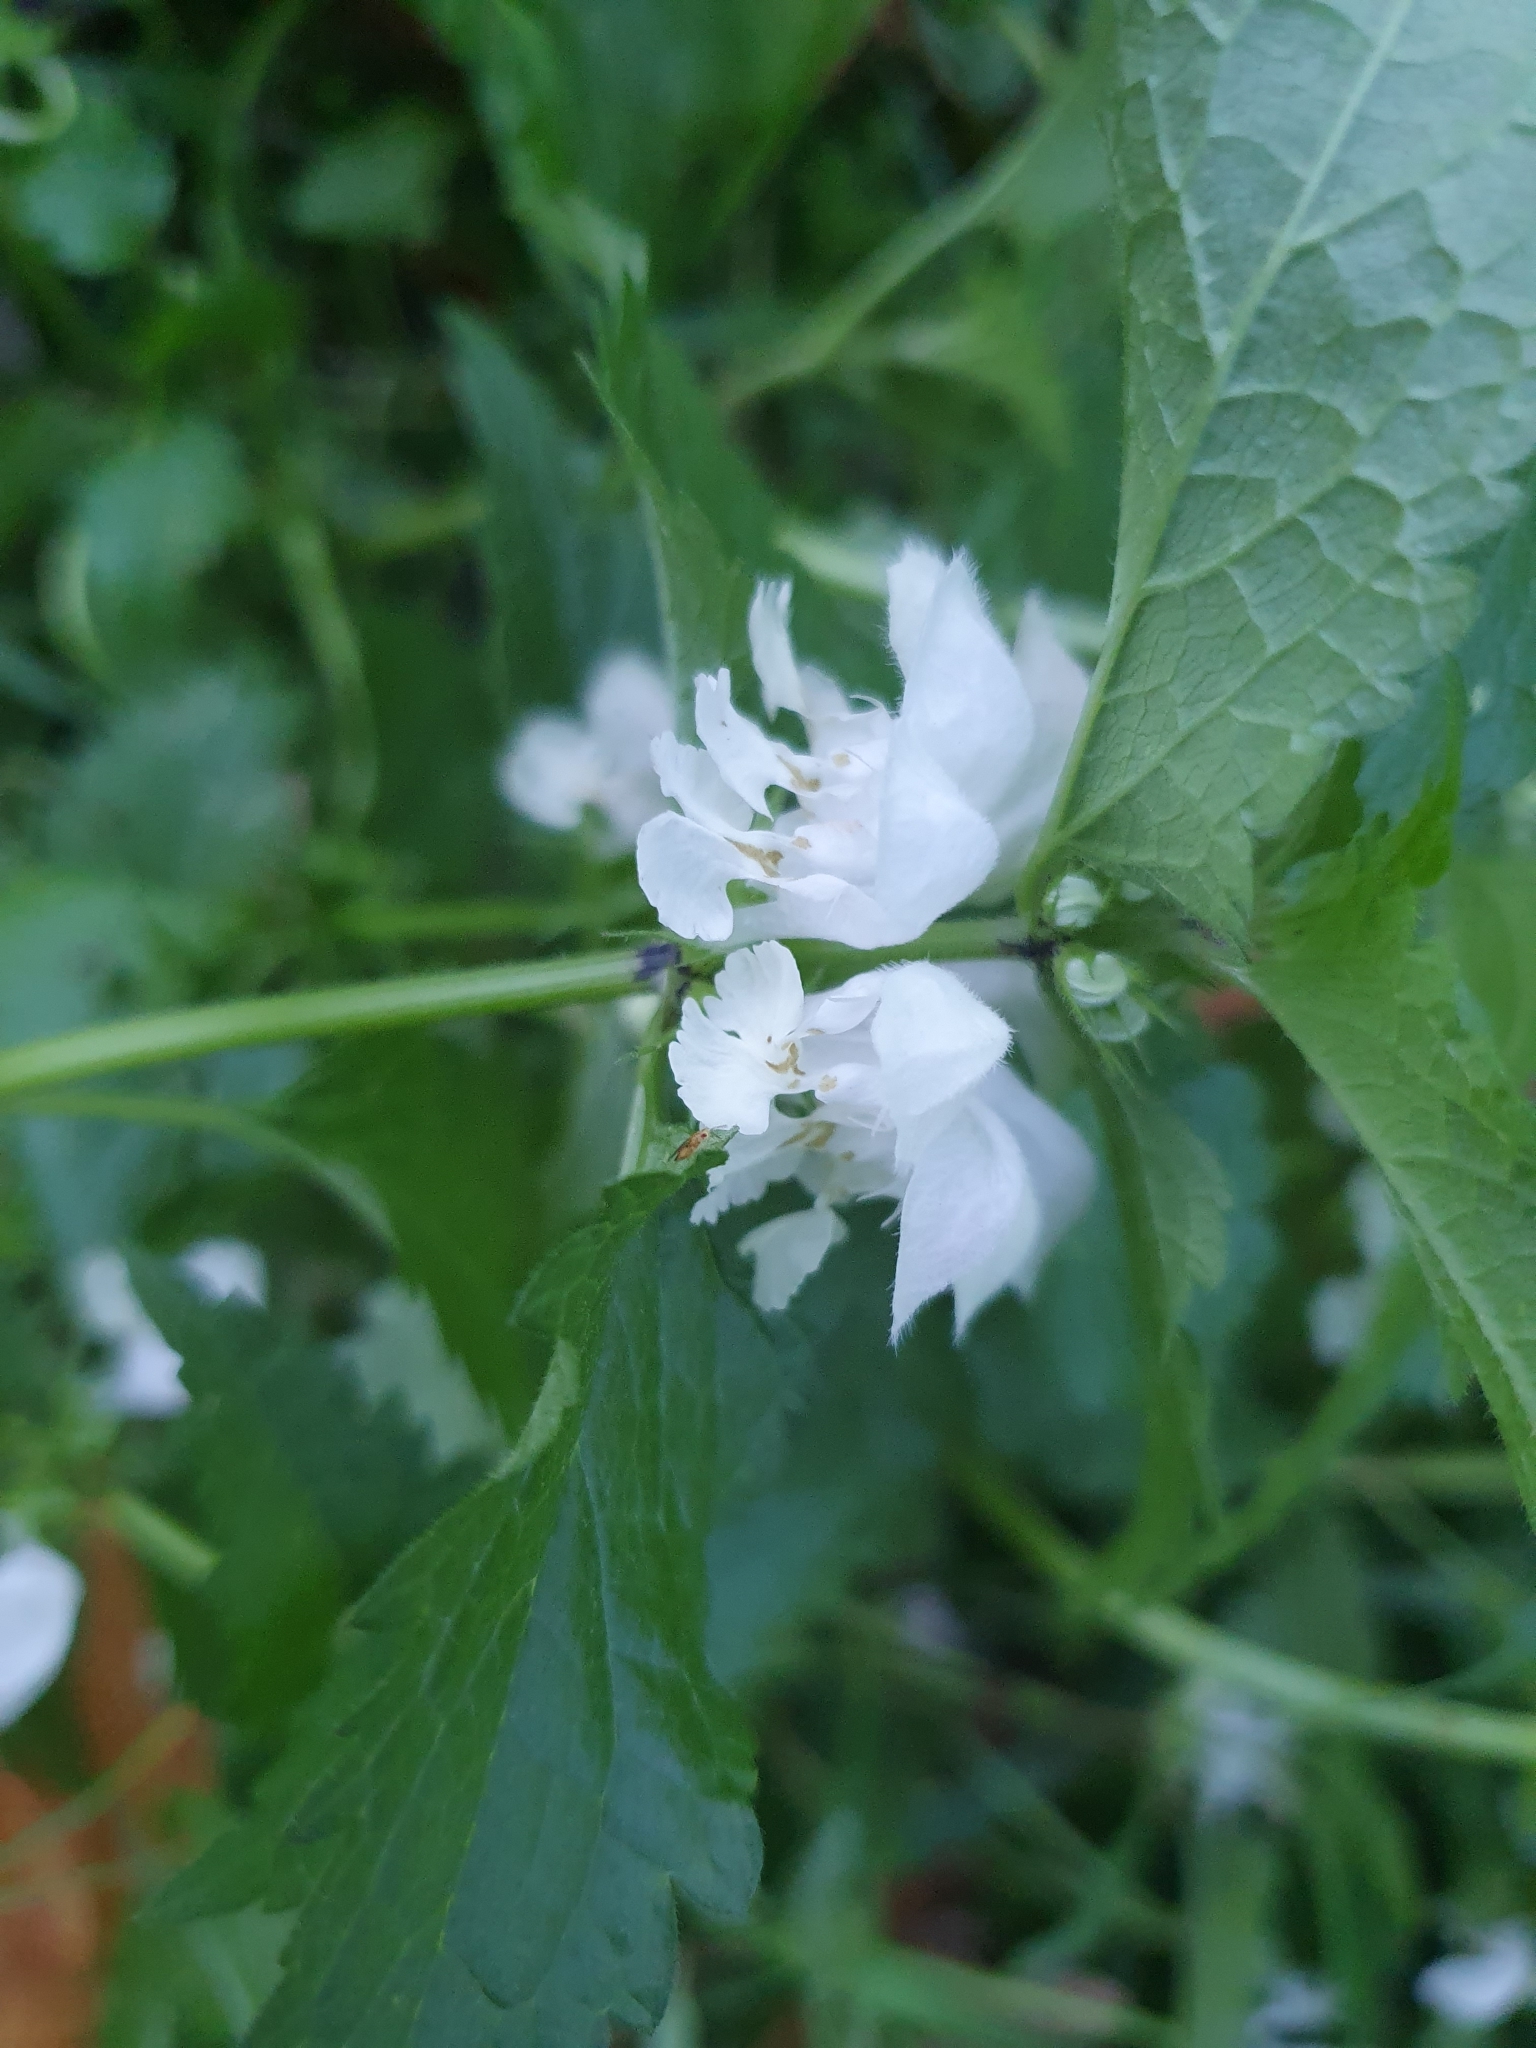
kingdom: Plantae
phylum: Tracheophyta
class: Magnoliopsida
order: Lamiales
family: Lamiaceae
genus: Lamium
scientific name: Lamium album
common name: White dead-nettle
